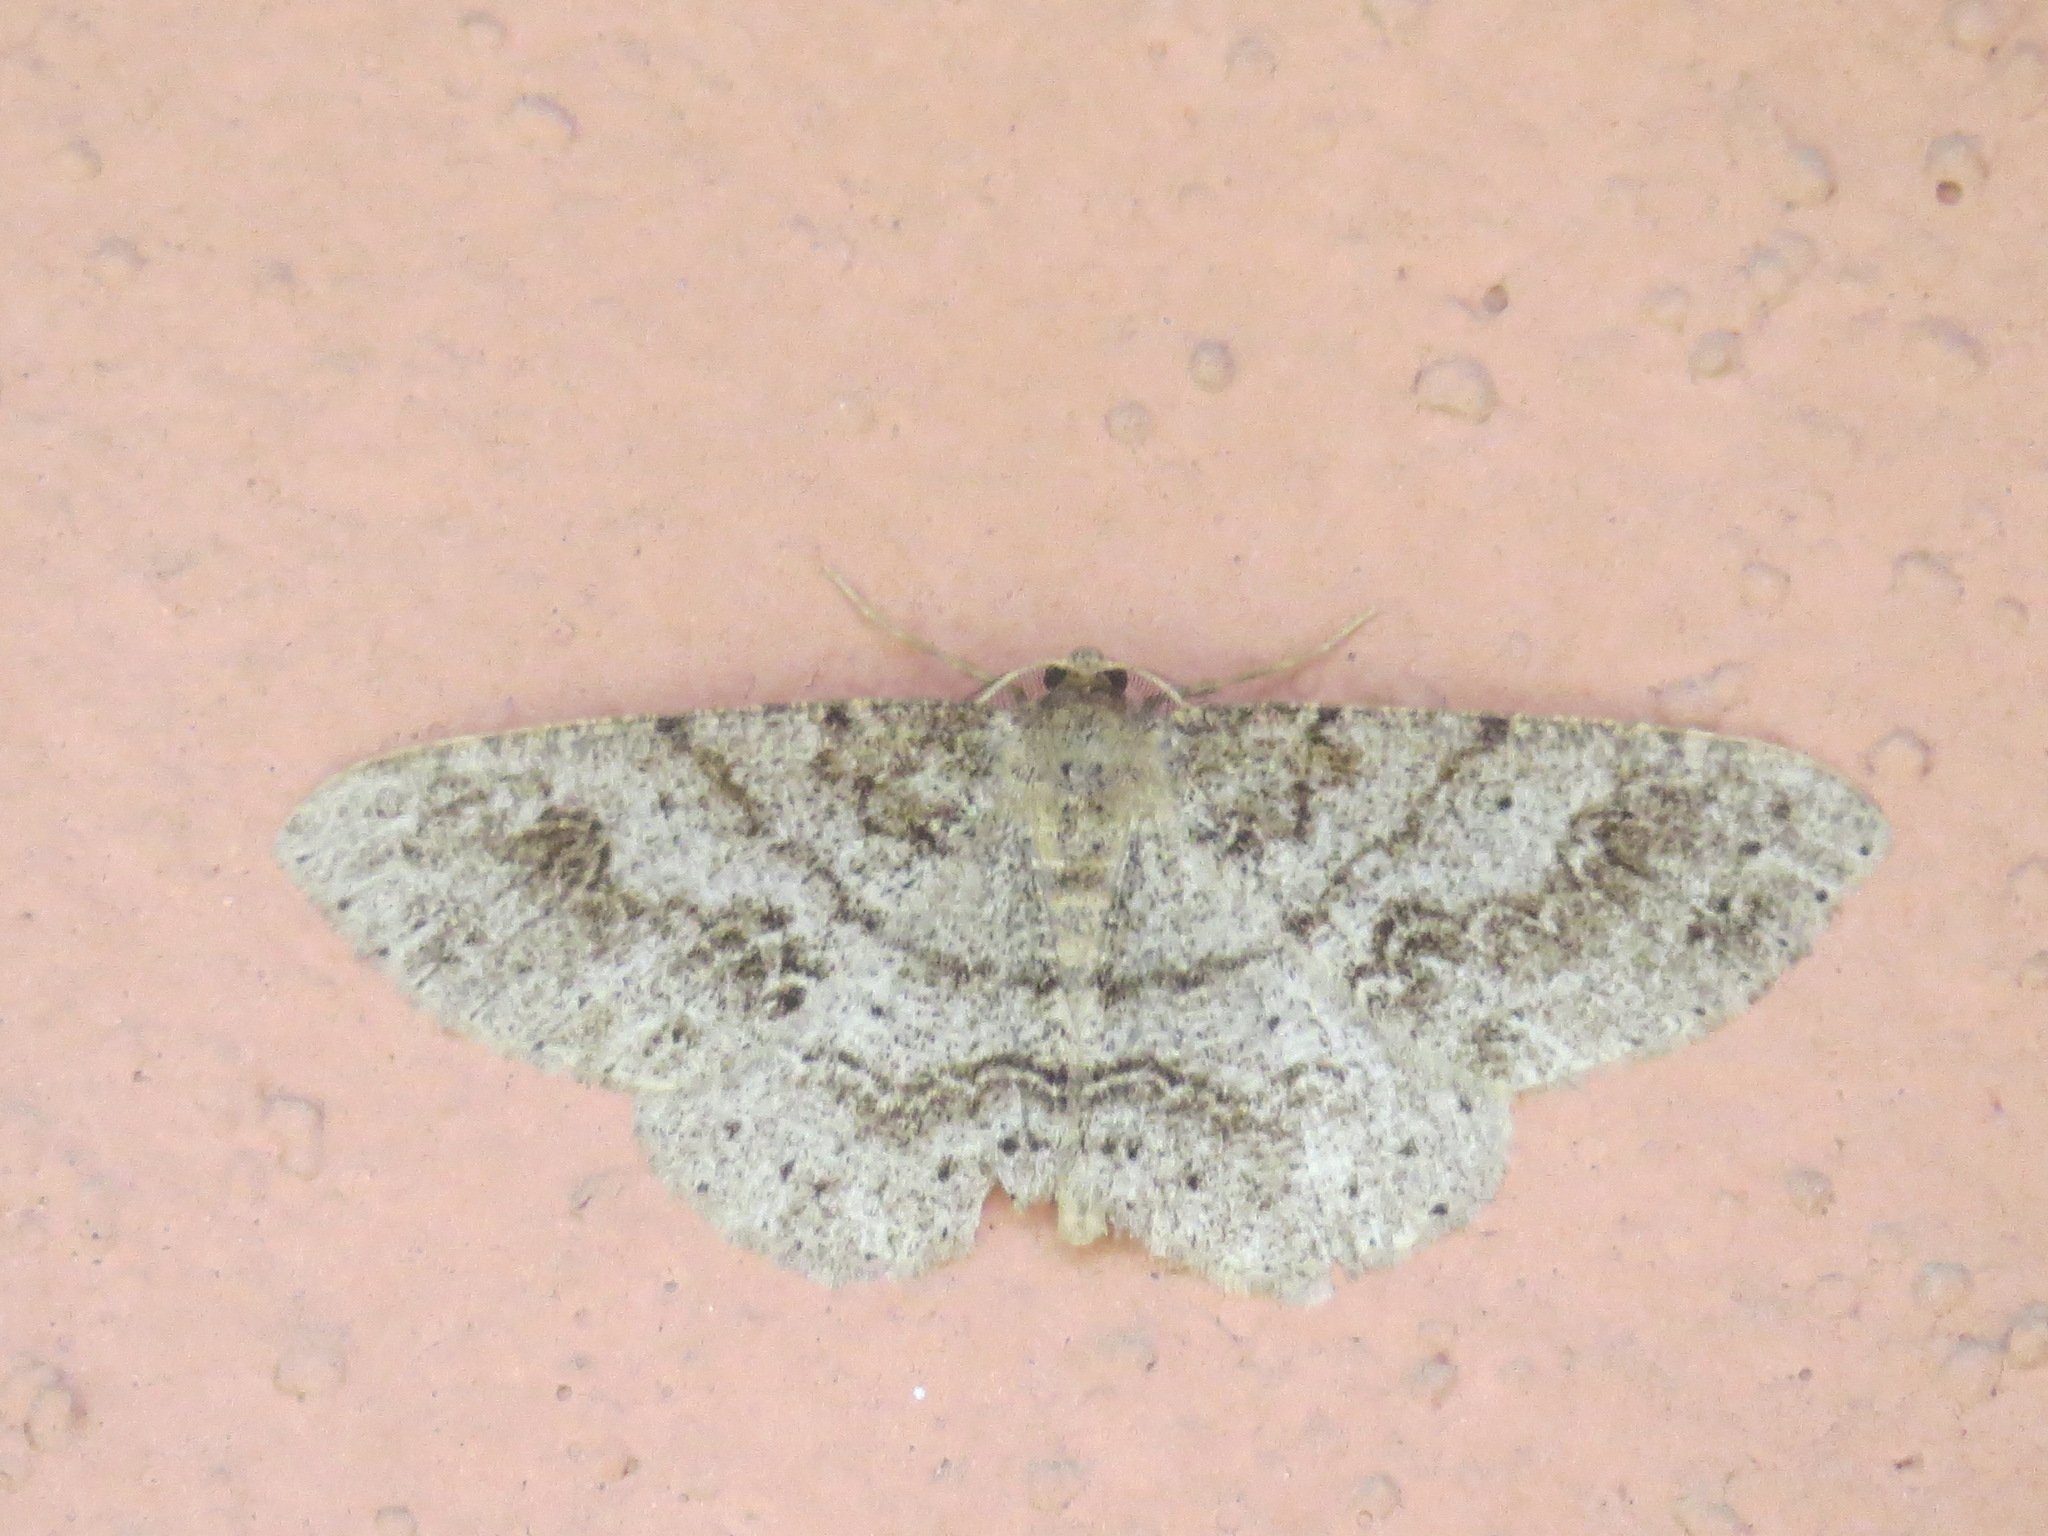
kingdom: Animalia
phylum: Arthropoda
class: Insecta
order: Lepidoptera
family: Geometridae
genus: Melanolophia
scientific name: Melanolophia imitata
